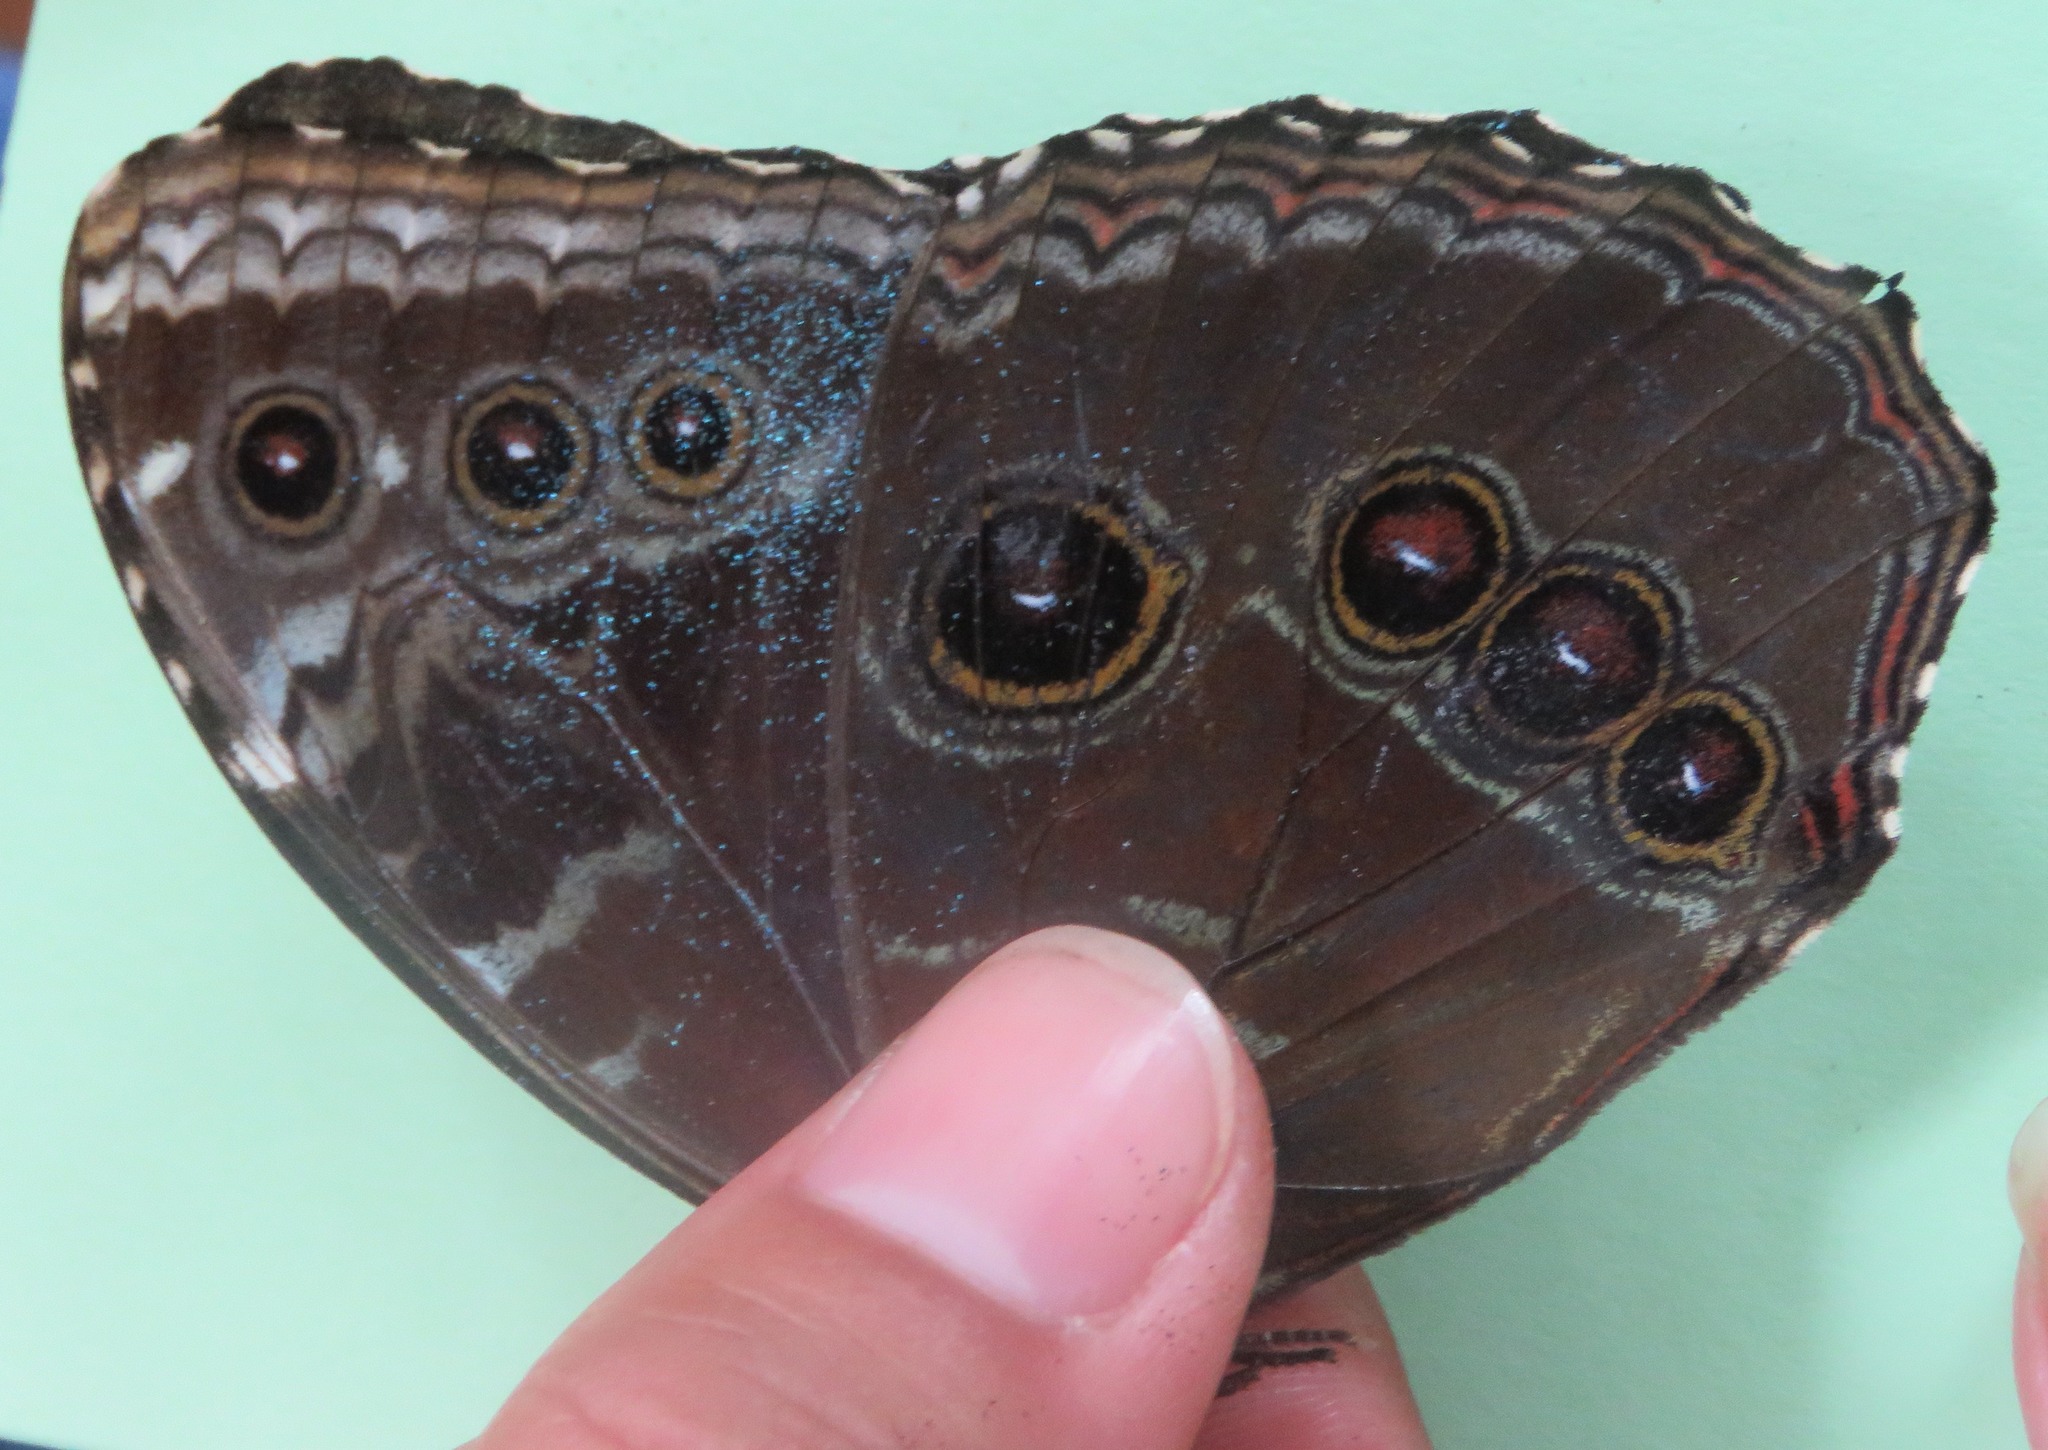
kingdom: Animalia
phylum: Arthropoda
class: Insecta
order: Lepidoptera
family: Nymphalidae
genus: Morpho
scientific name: Morpho helenor
